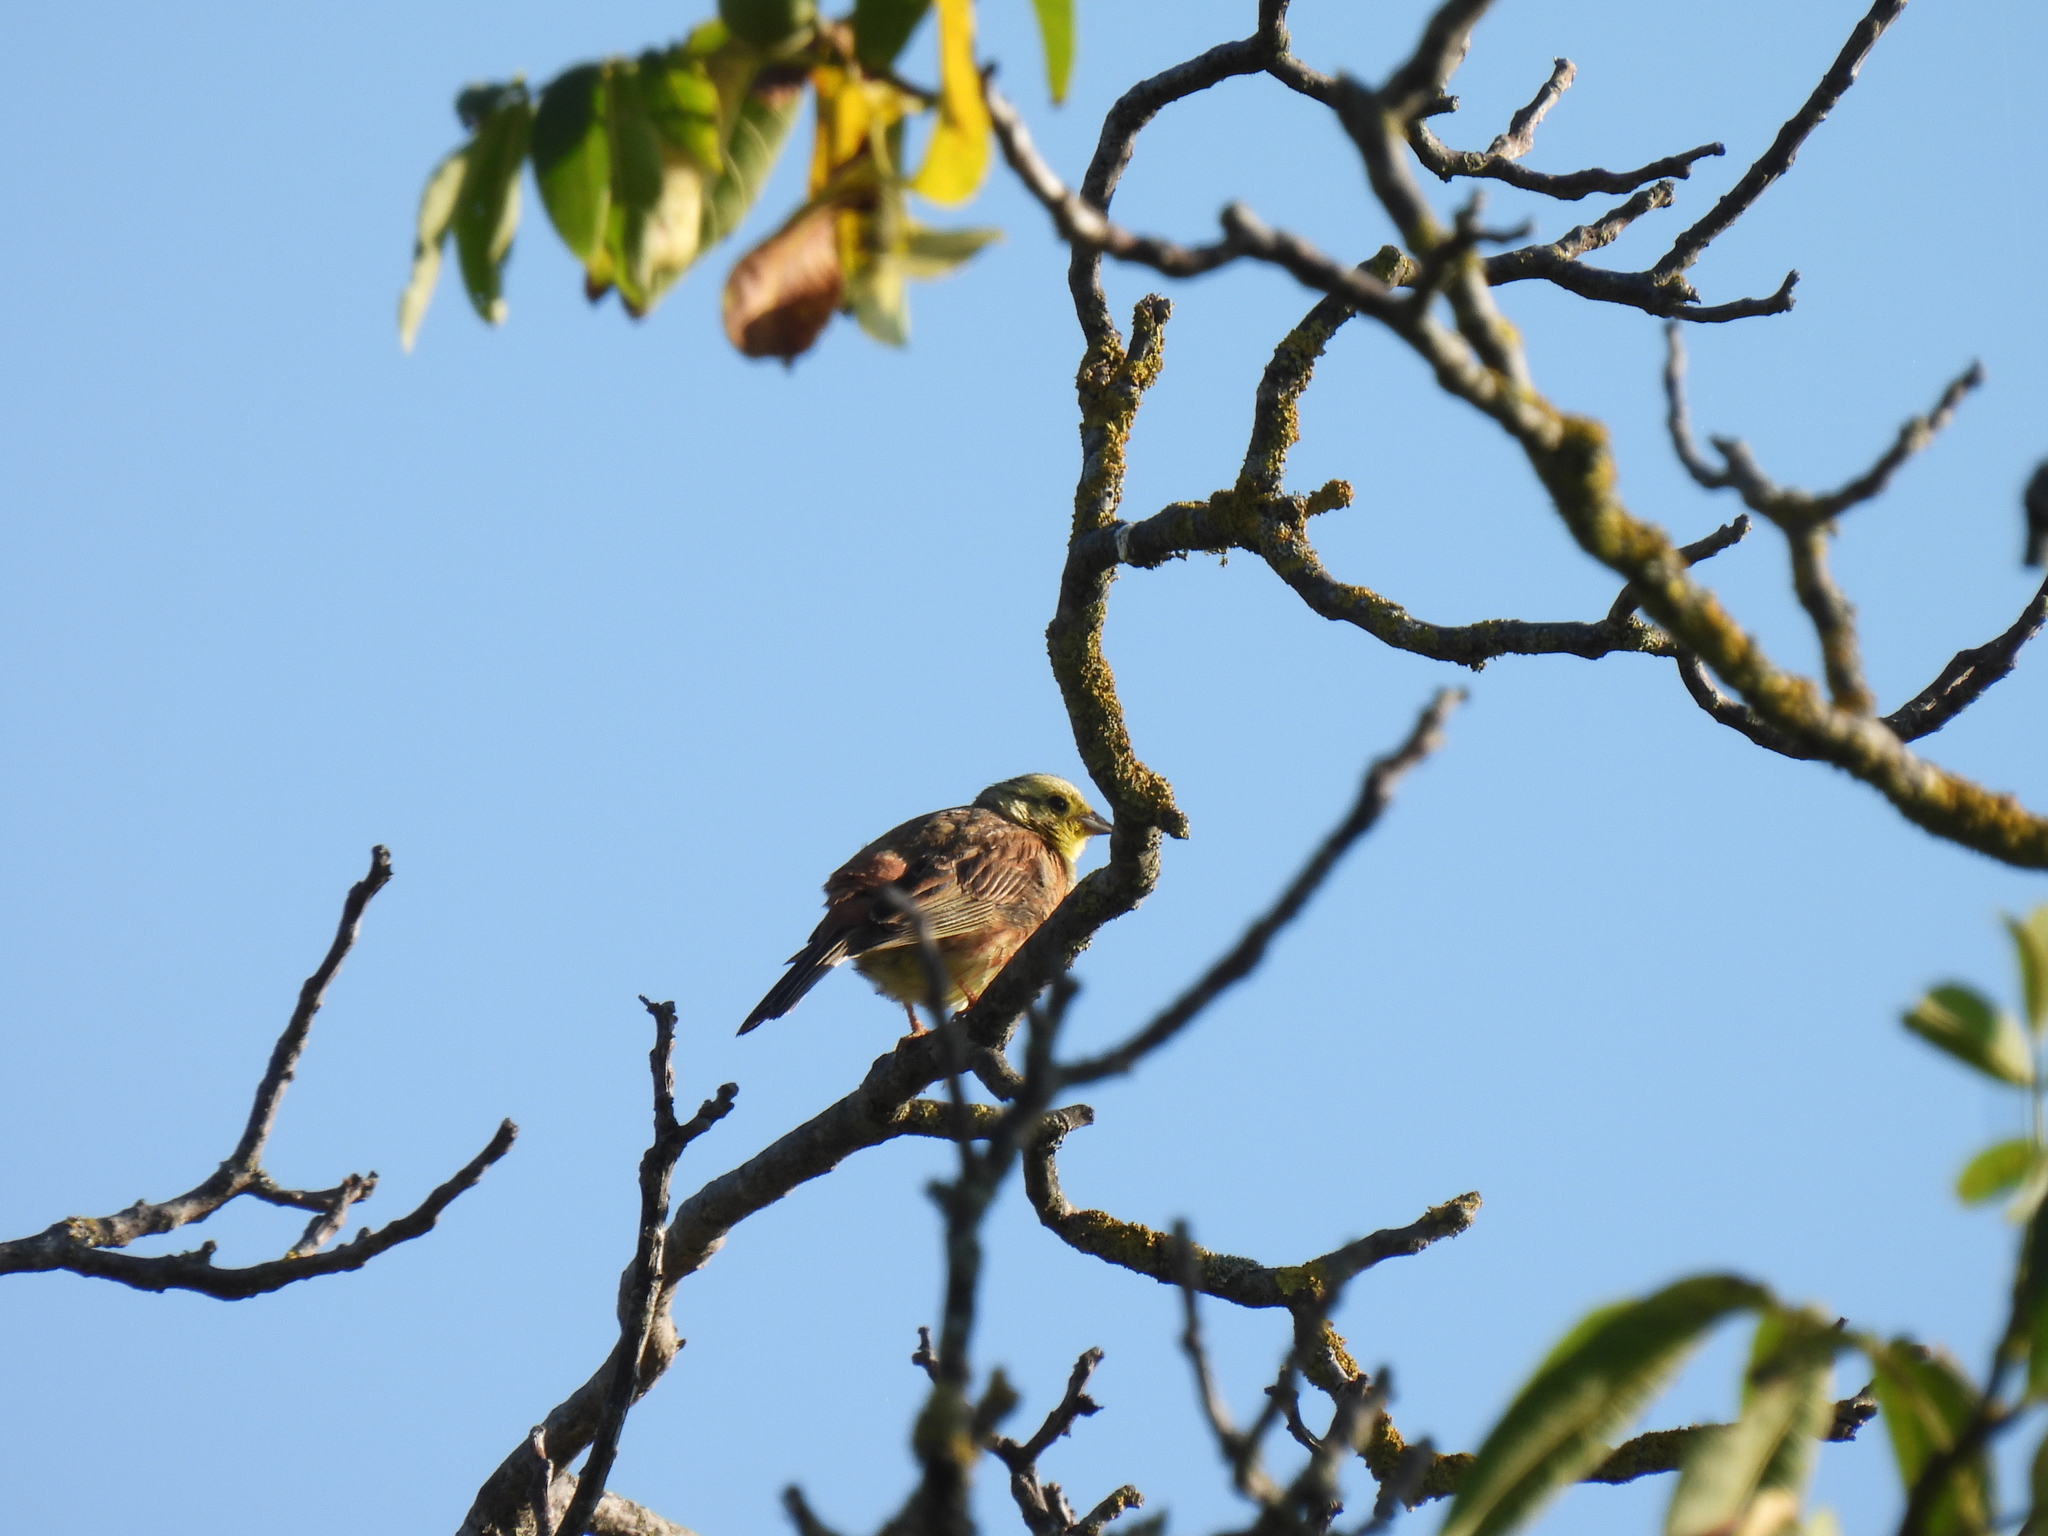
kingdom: Animalia
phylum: Chordata
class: Aves
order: Passeriformes
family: Emberizidae
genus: Emberiza
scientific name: Emberiza citrinella
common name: Yellowhammer
